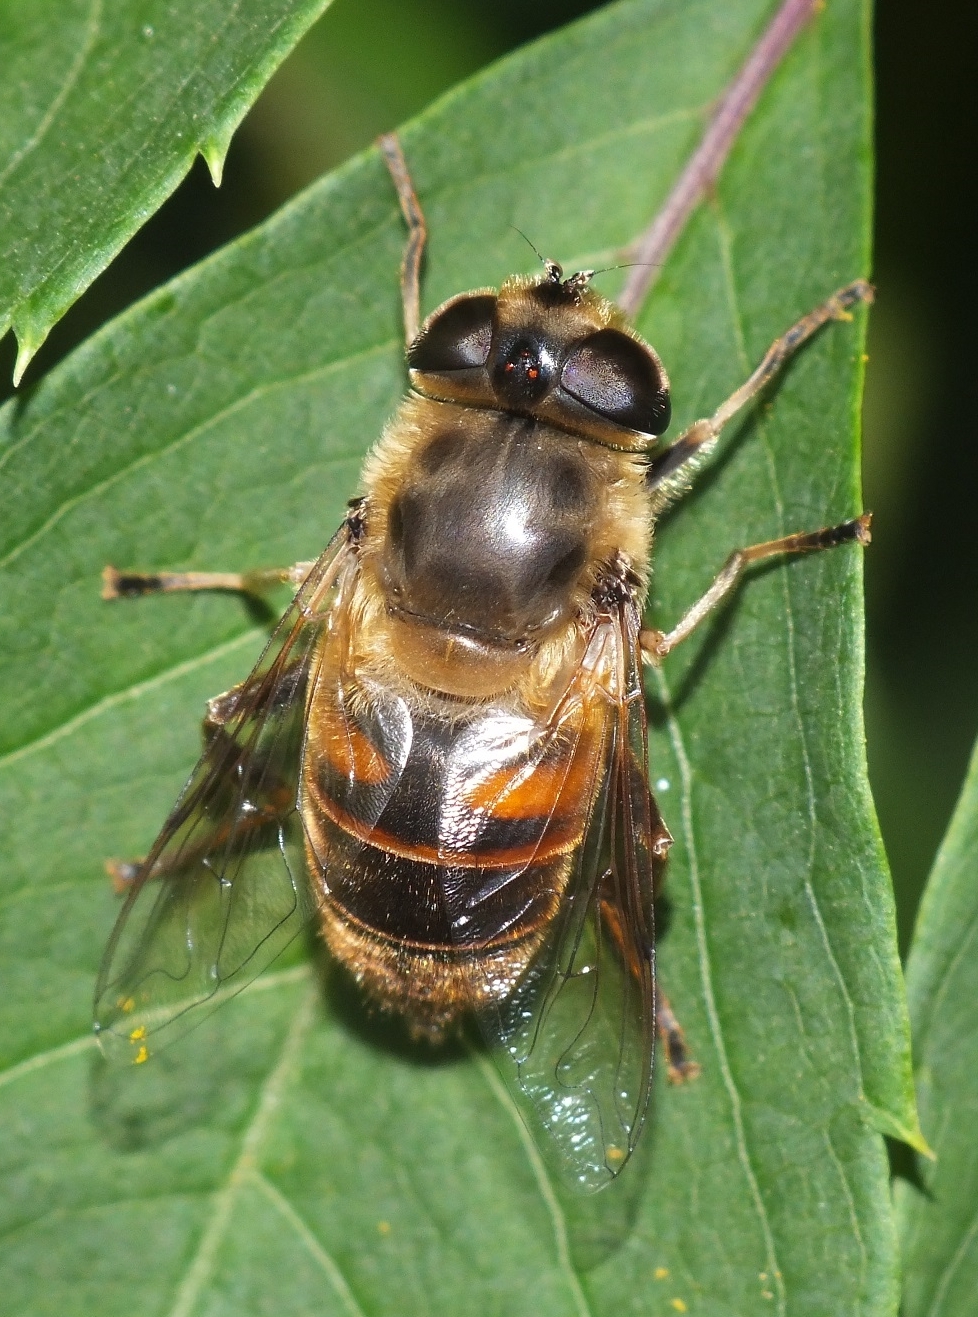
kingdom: Animalia
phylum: Arthropoda
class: Insecta
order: Diptera
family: Syrphidae
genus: Eristalis
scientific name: Eristalis tenax
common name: Drone fly
